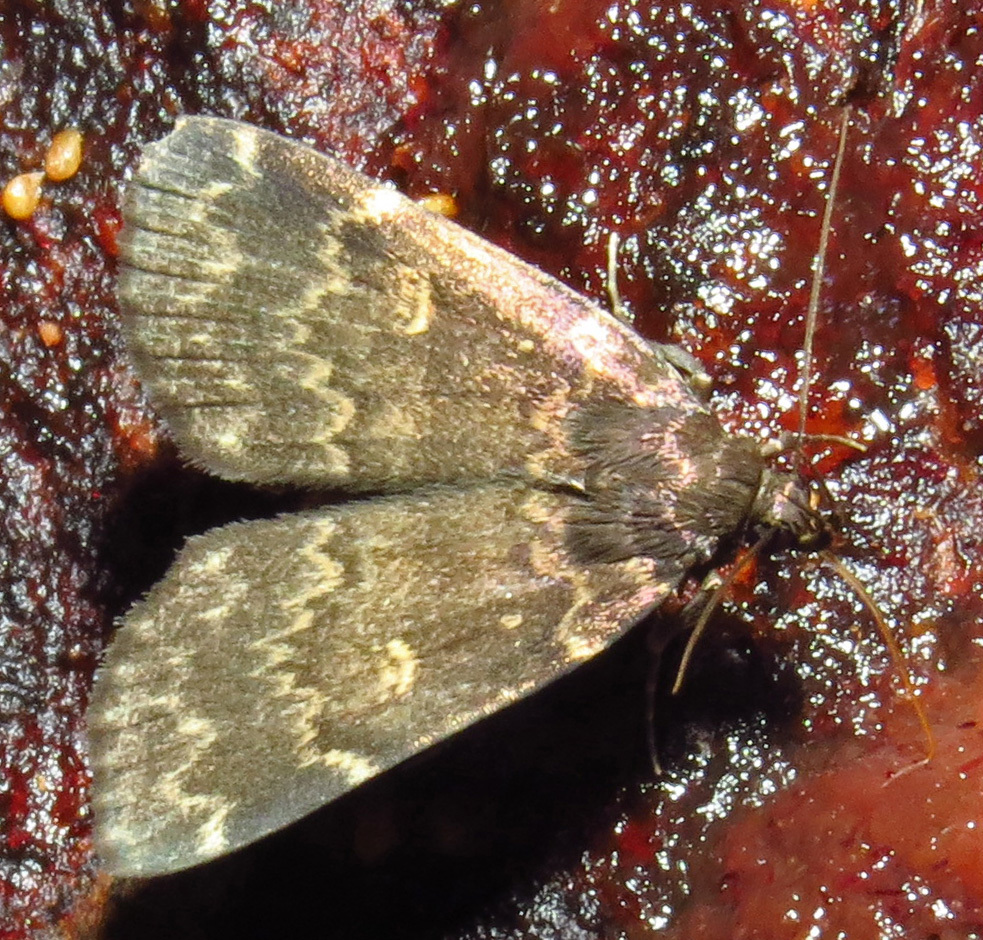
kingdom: Animalia
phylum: Arthropoda
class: Insecta
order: Lepidoptera
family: Erebidae
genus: Idia
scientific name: Idia lubricalis
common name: Twin-striped tabby
